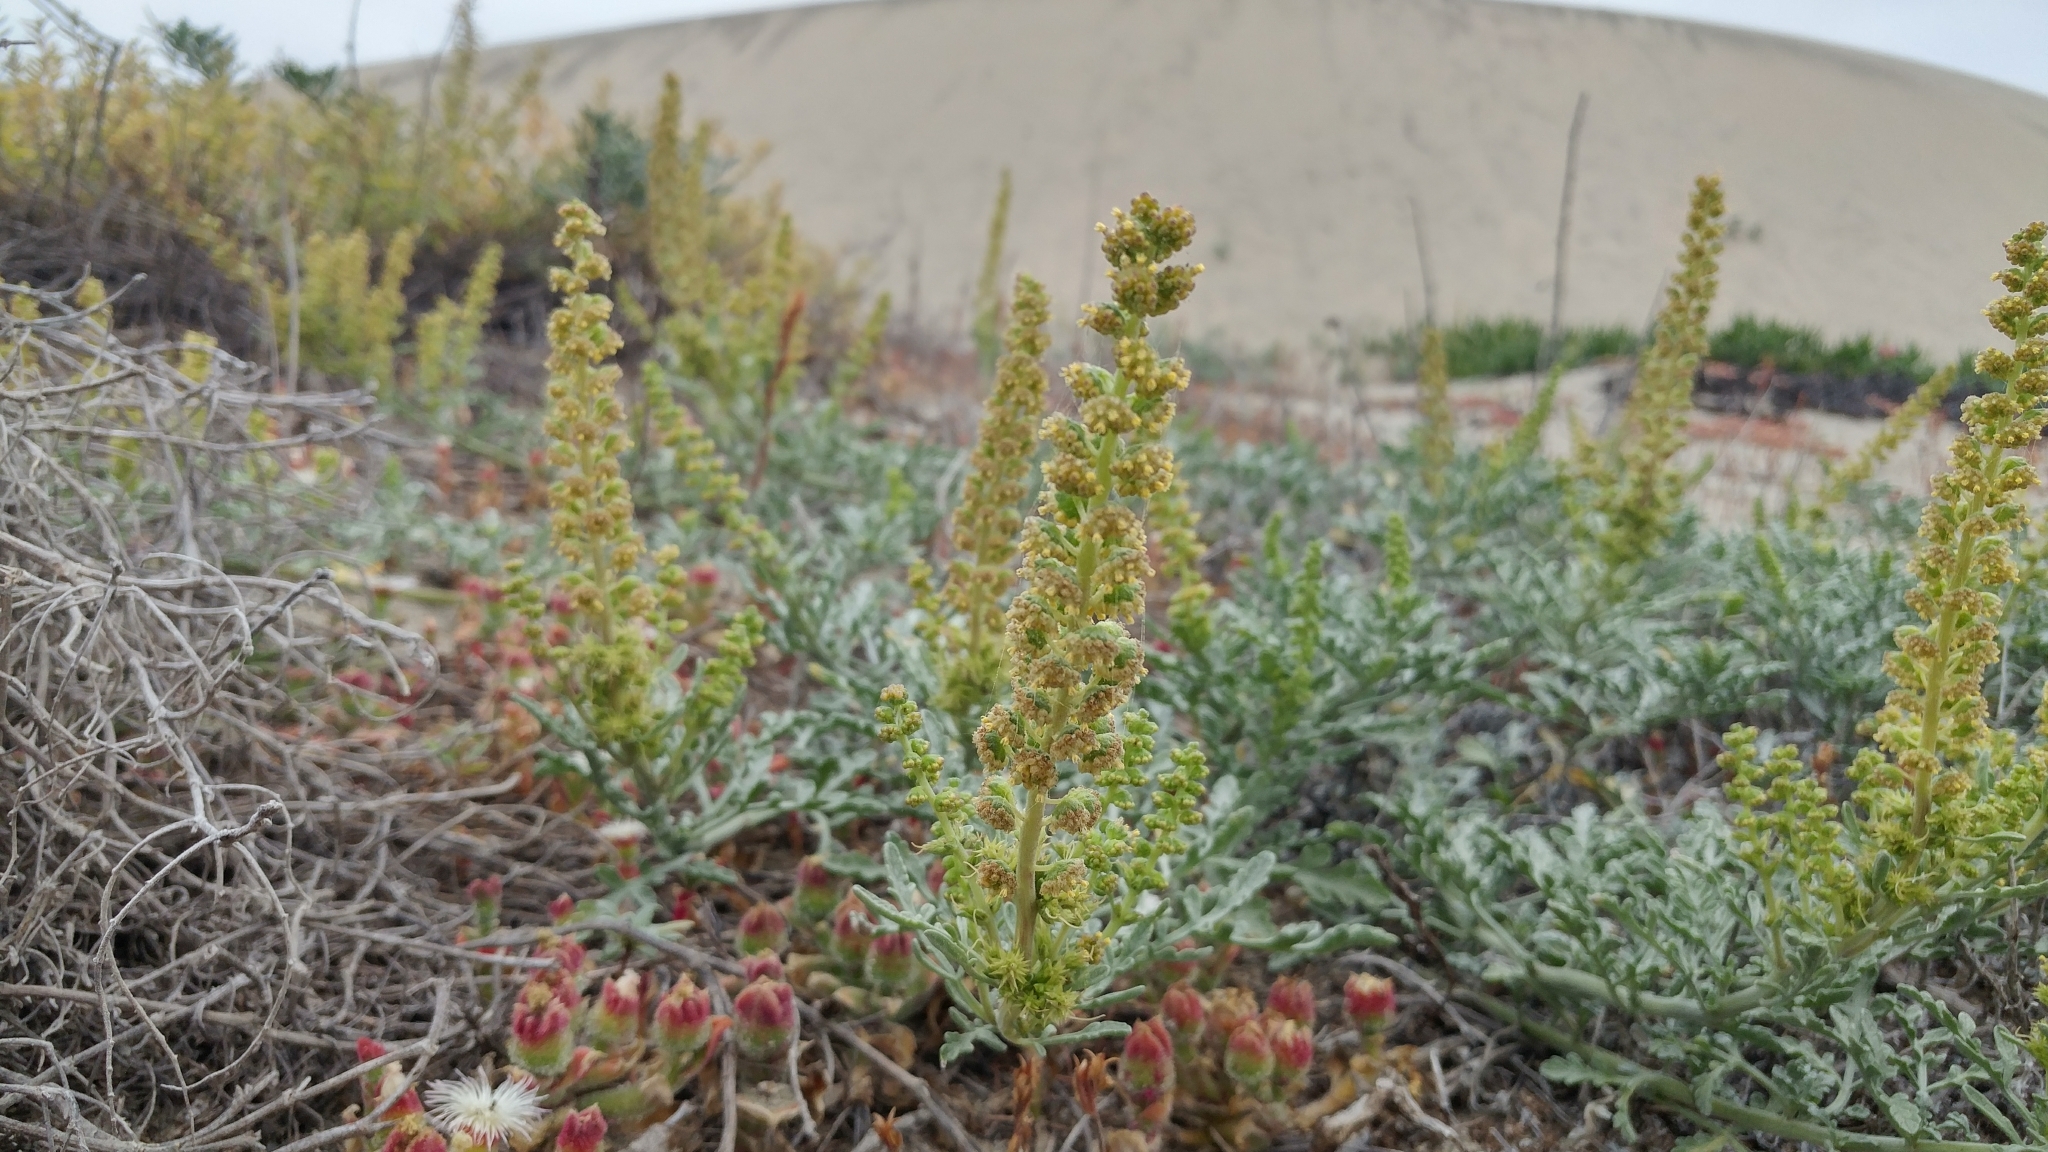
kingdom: Plantae
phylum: Tracheophyta
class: Magnoliopsida
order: Asterales
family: Asteraceae
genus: Ambrosia
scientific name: Ambrosia chamissonis
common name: Beachbur
